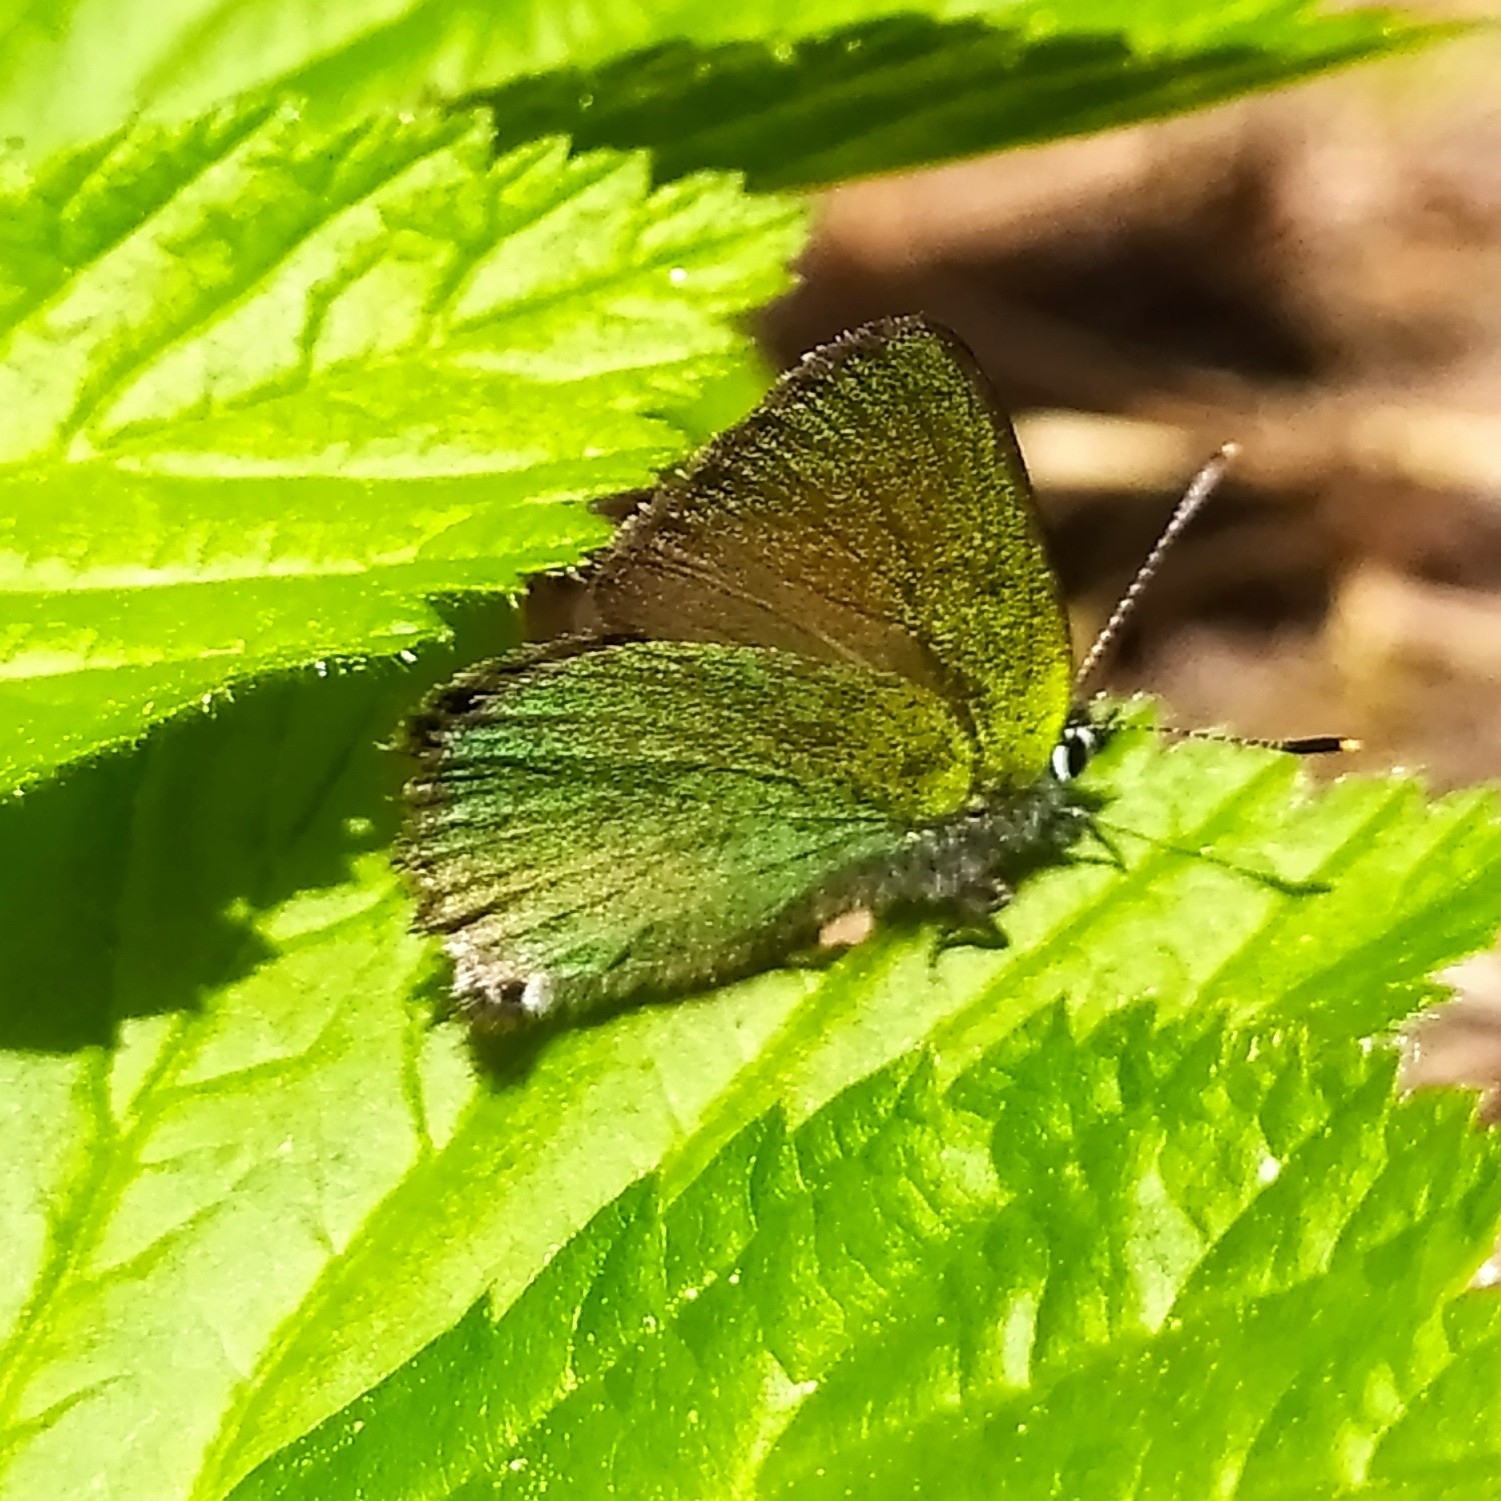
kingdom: Animalia
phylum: Arthropoda
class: Insecta
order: Lepidoptera
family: Lycaenidae
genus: Callophrys
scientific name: Callophrys rubi
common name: Green hairstreak
